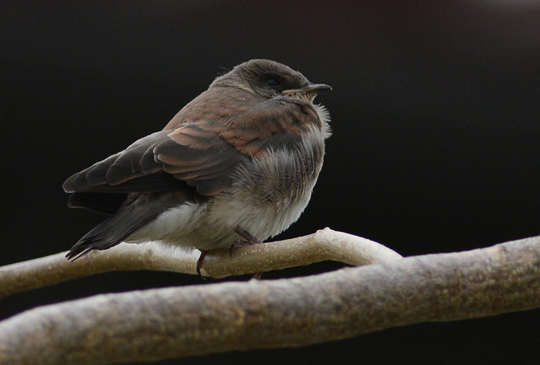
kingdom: Animalia
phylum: Chordata
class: Aves
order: Passeriformes
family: Hirundinidae
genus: Stelgidopteryx
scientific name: Stelgidopteryx serripennis
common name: Northern rough-winged swallow
